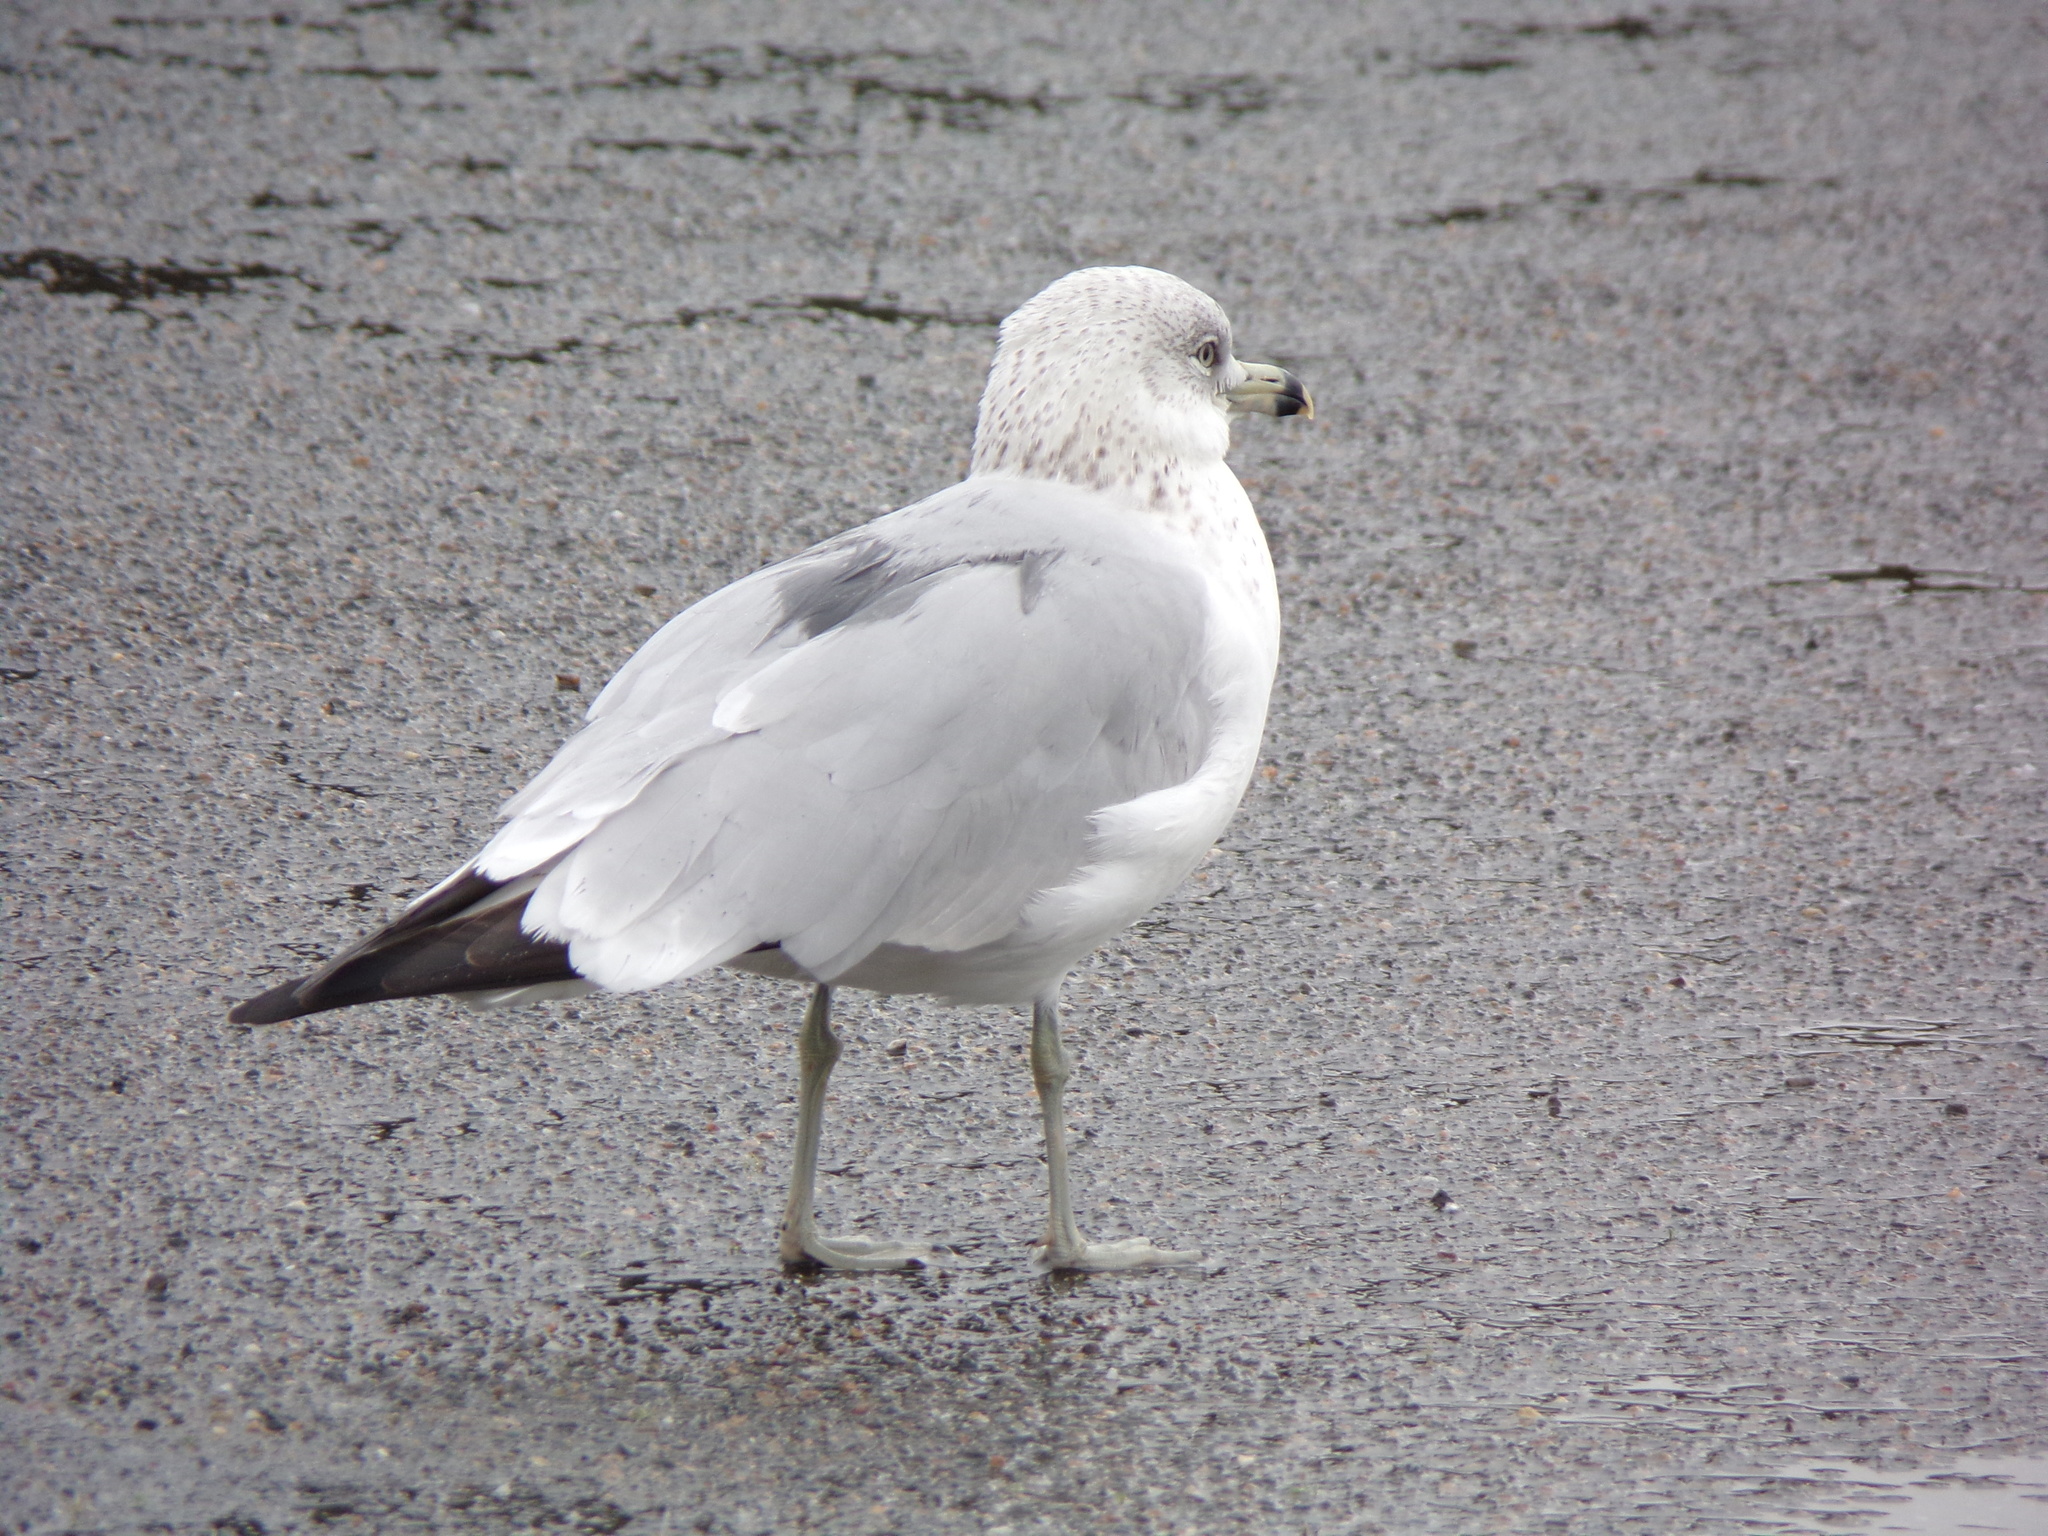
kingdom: Animalia
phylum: Chordata
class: Aves
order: Charadriiformes
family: Laridae
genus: Larus
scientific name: Larus delawarensis
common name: Ring-billed gull
